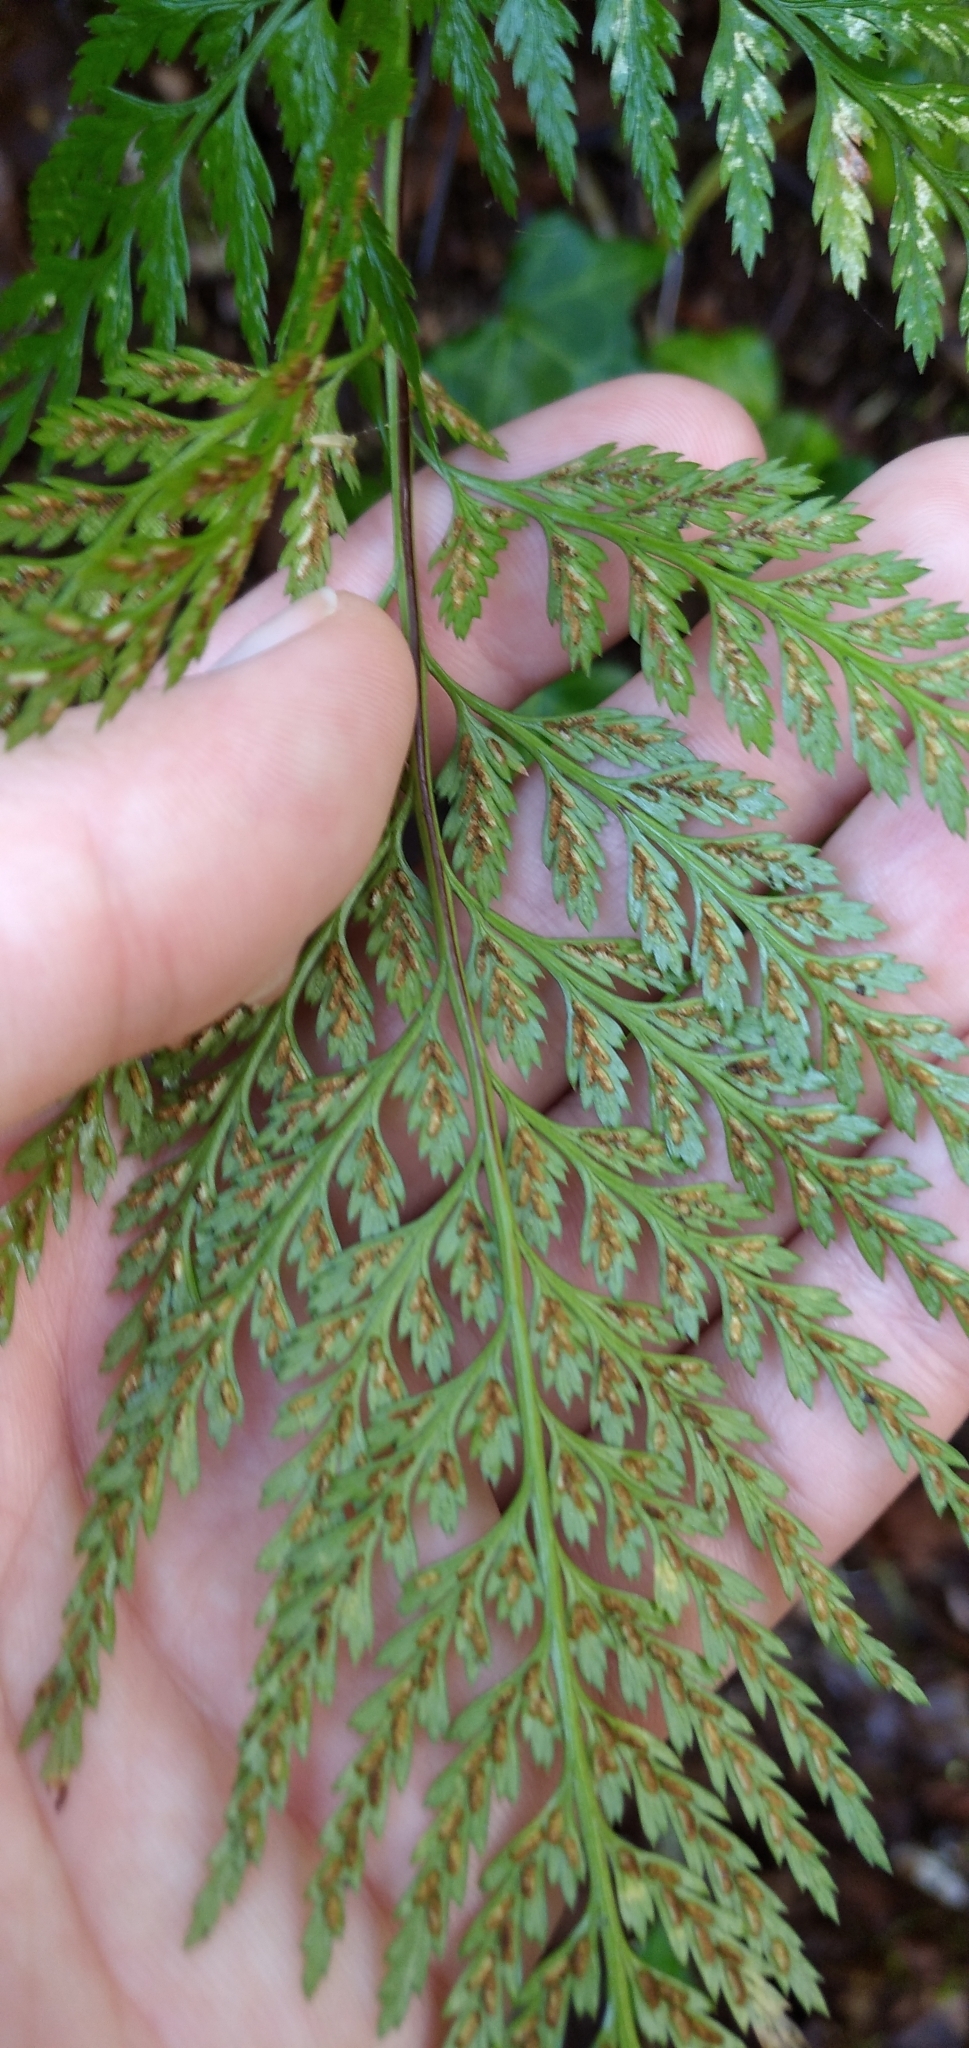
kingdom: Plantae
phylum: Tracheophyta
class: Polypodiopsida
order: Polypodiales
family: Aspleniaceae
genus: Asplenium
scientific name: Asplenium onopteris
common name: Irish spleenwort
